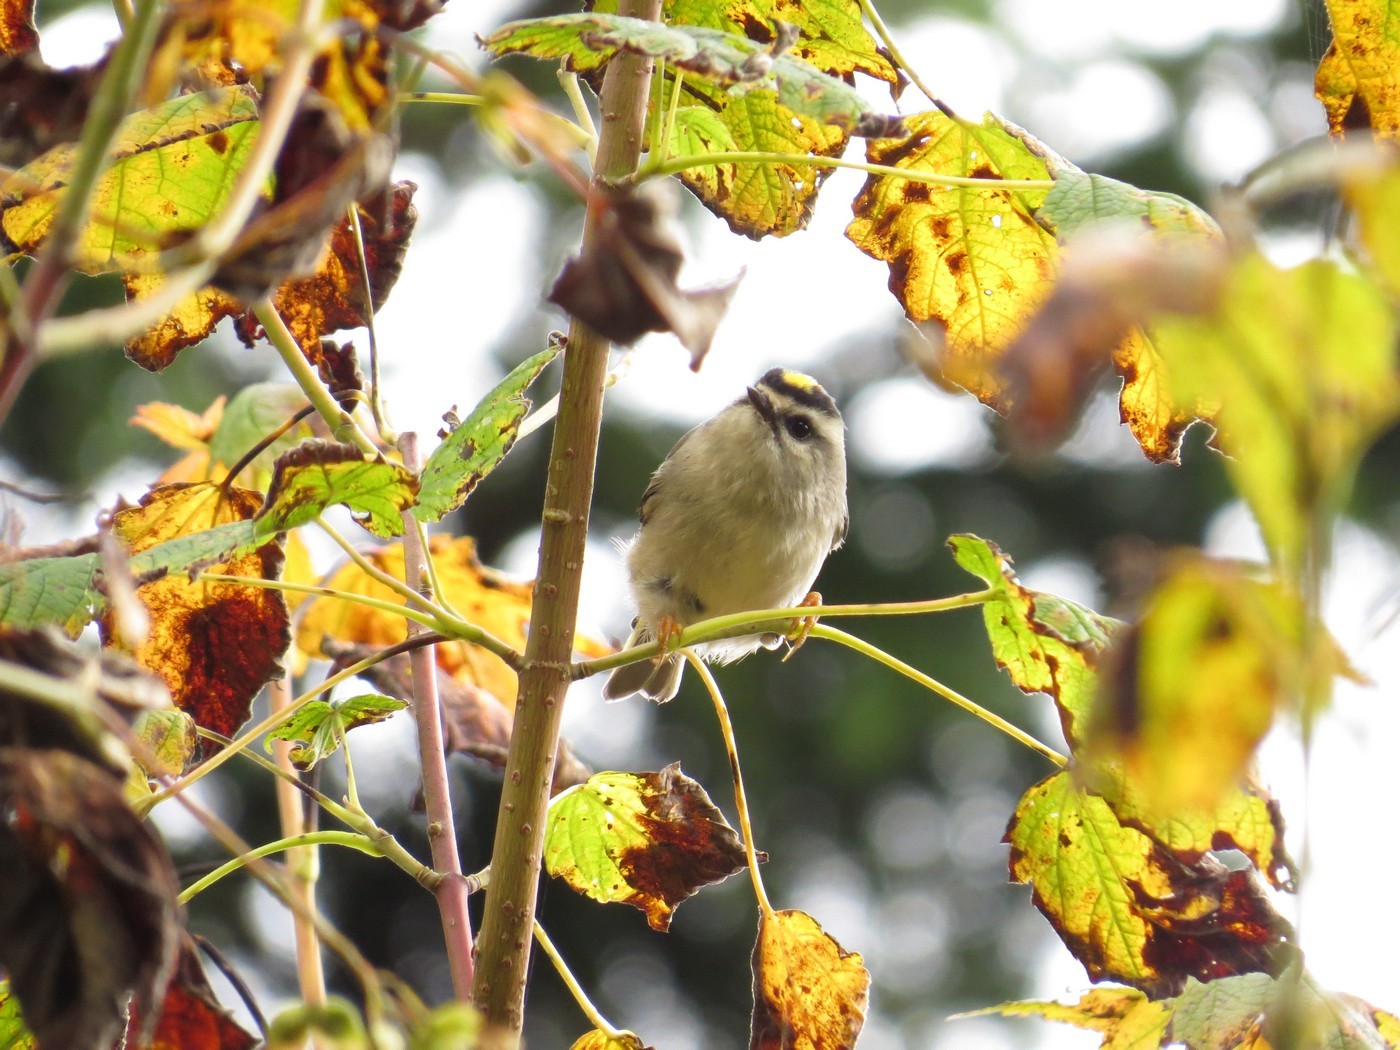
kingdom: Animalia
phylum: Chordata
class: Aves
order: Passeriformes
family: Regulidae
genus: Regulus
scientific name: Regulus satrapa
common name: Golden-crowned kinglet
